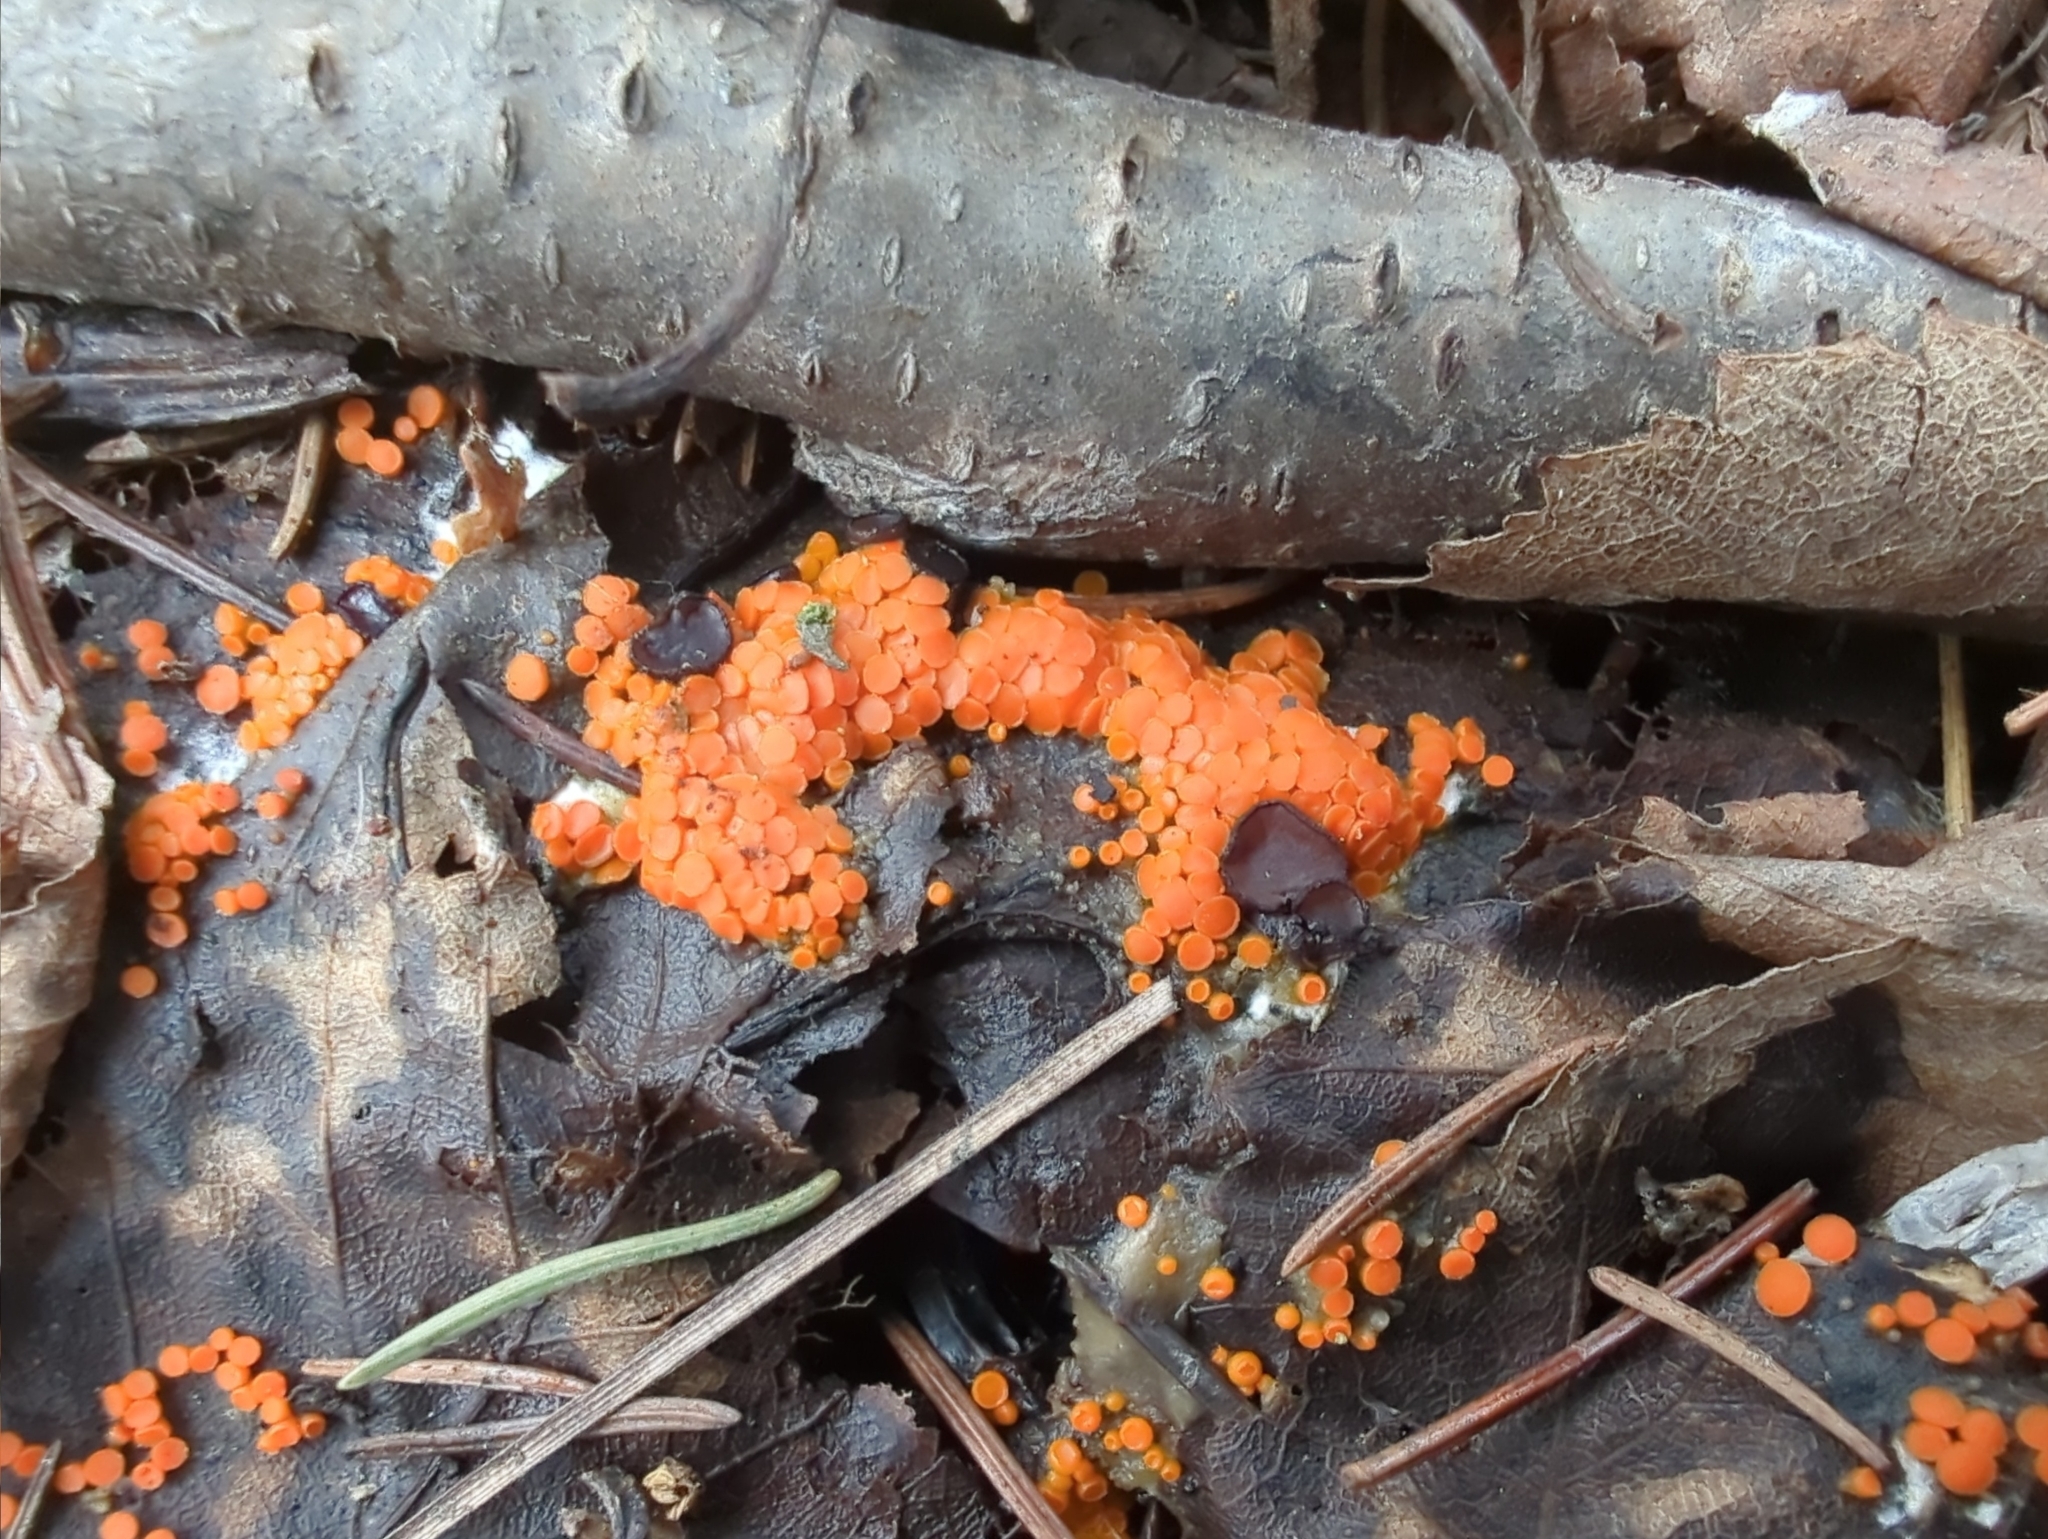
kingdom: Fungi
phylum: Ascomycota
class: Pezizomycetes
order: Pezizales
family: Pyronemataceae
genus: Byssonectria
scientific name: Byssonectria terrestris
